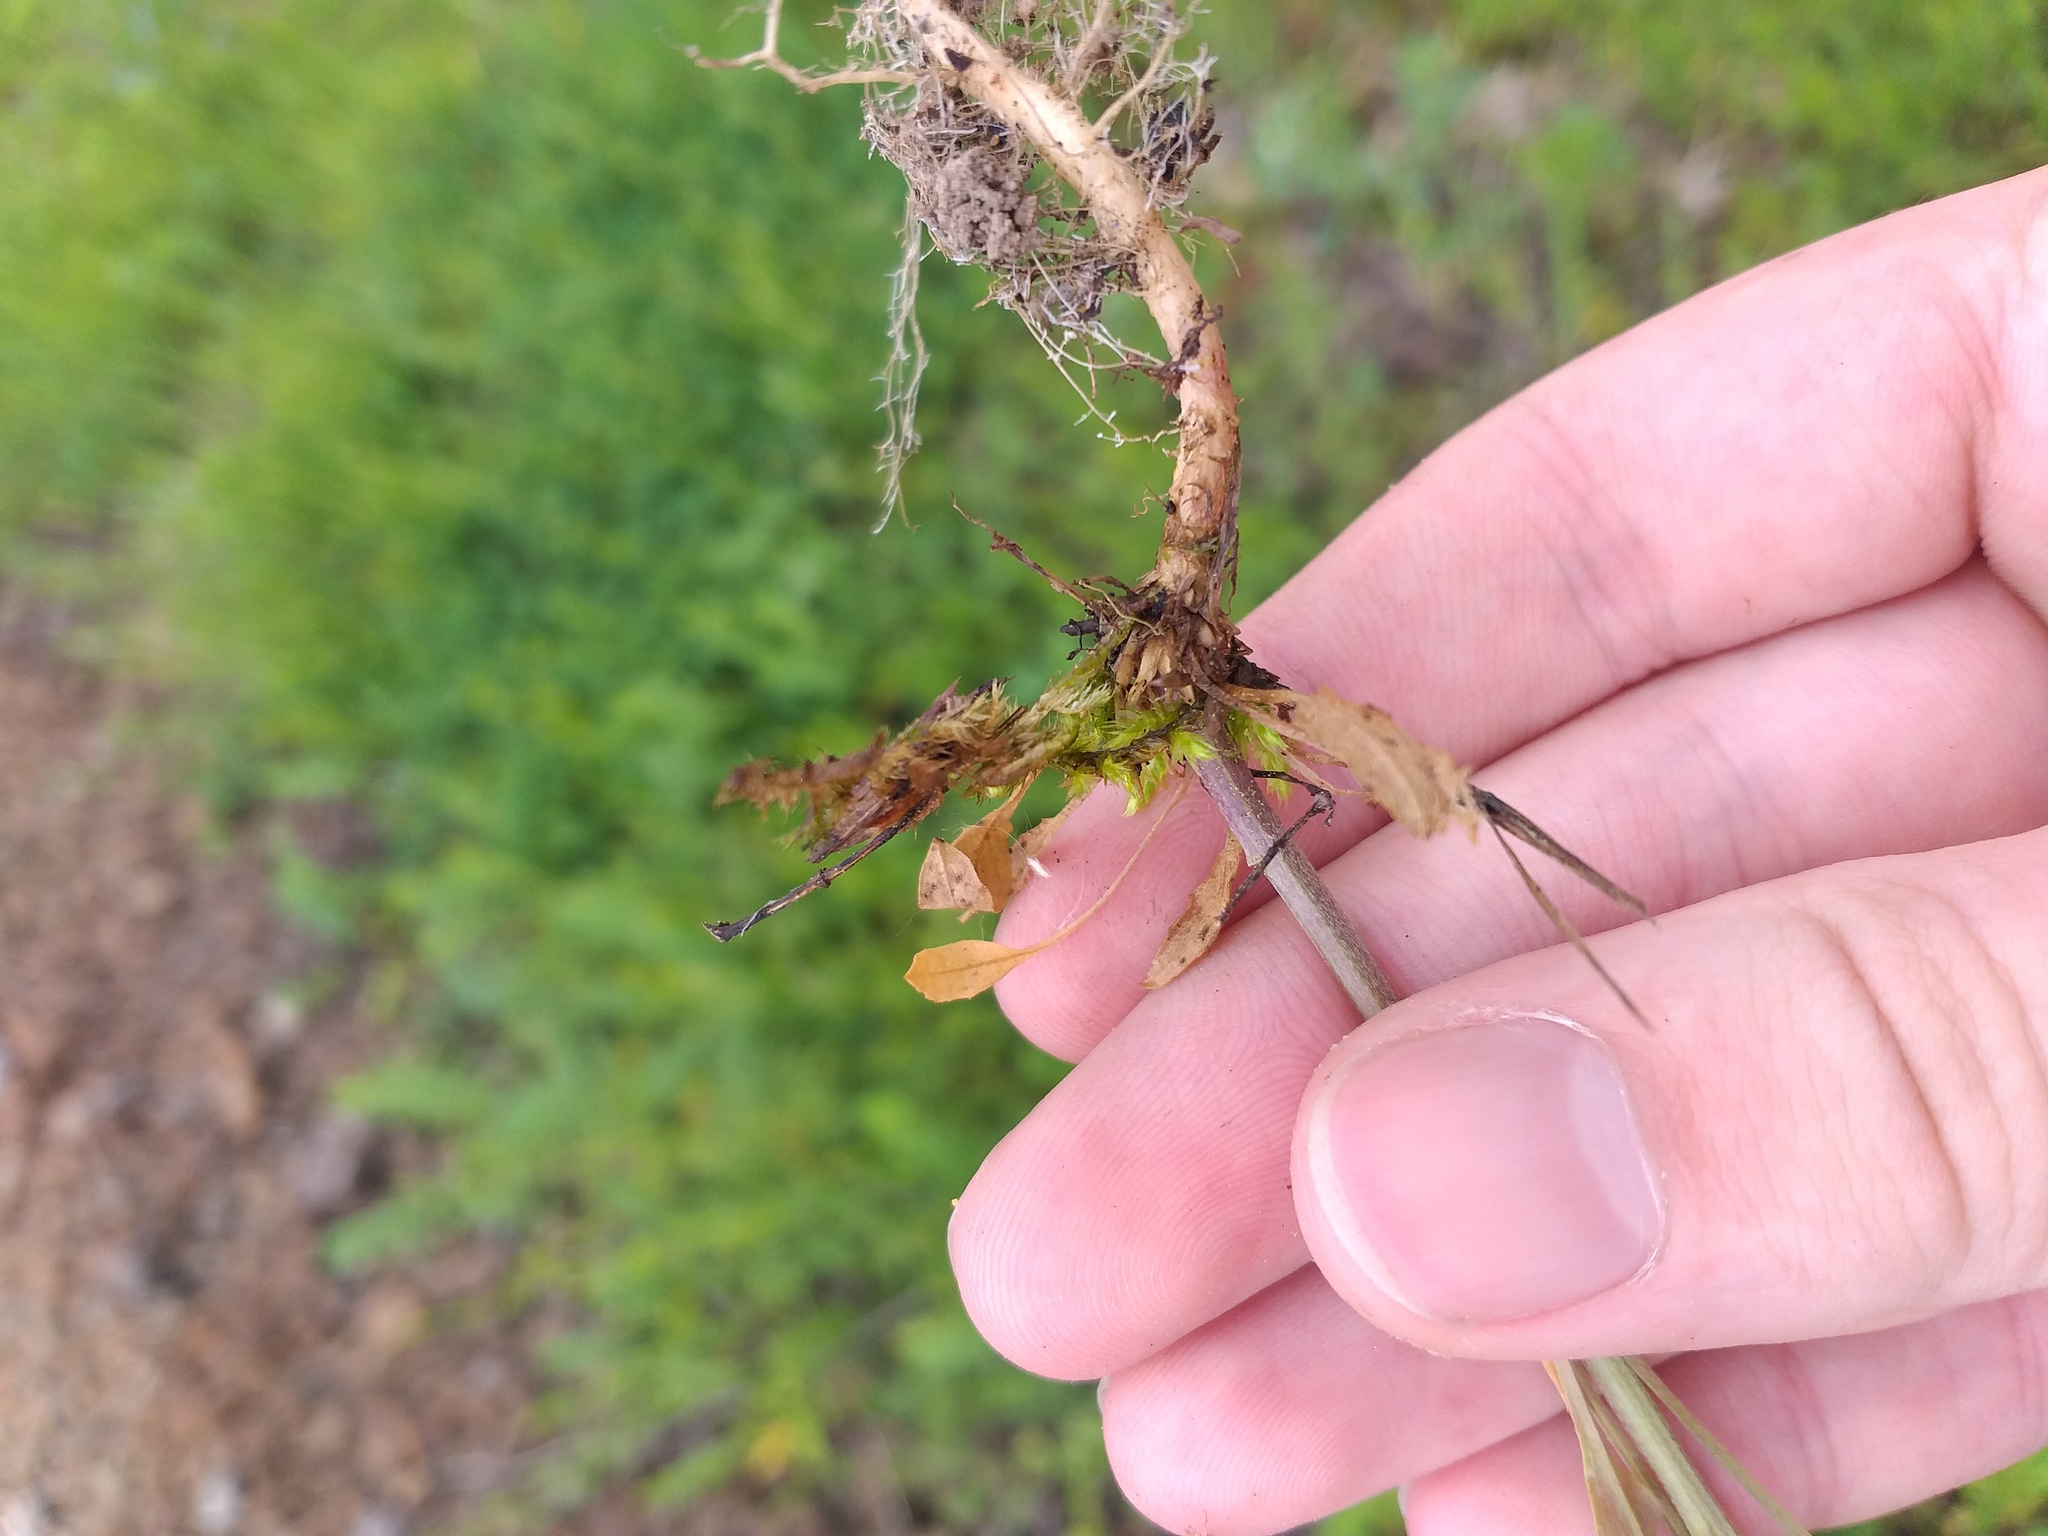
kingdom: Plantae
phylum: Tracheophyta
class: Magnoliopsida
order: Brassicales
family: Brassicaceae
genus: Erysimum
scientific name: Erysimum hieraciifolium
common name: European wallflower
